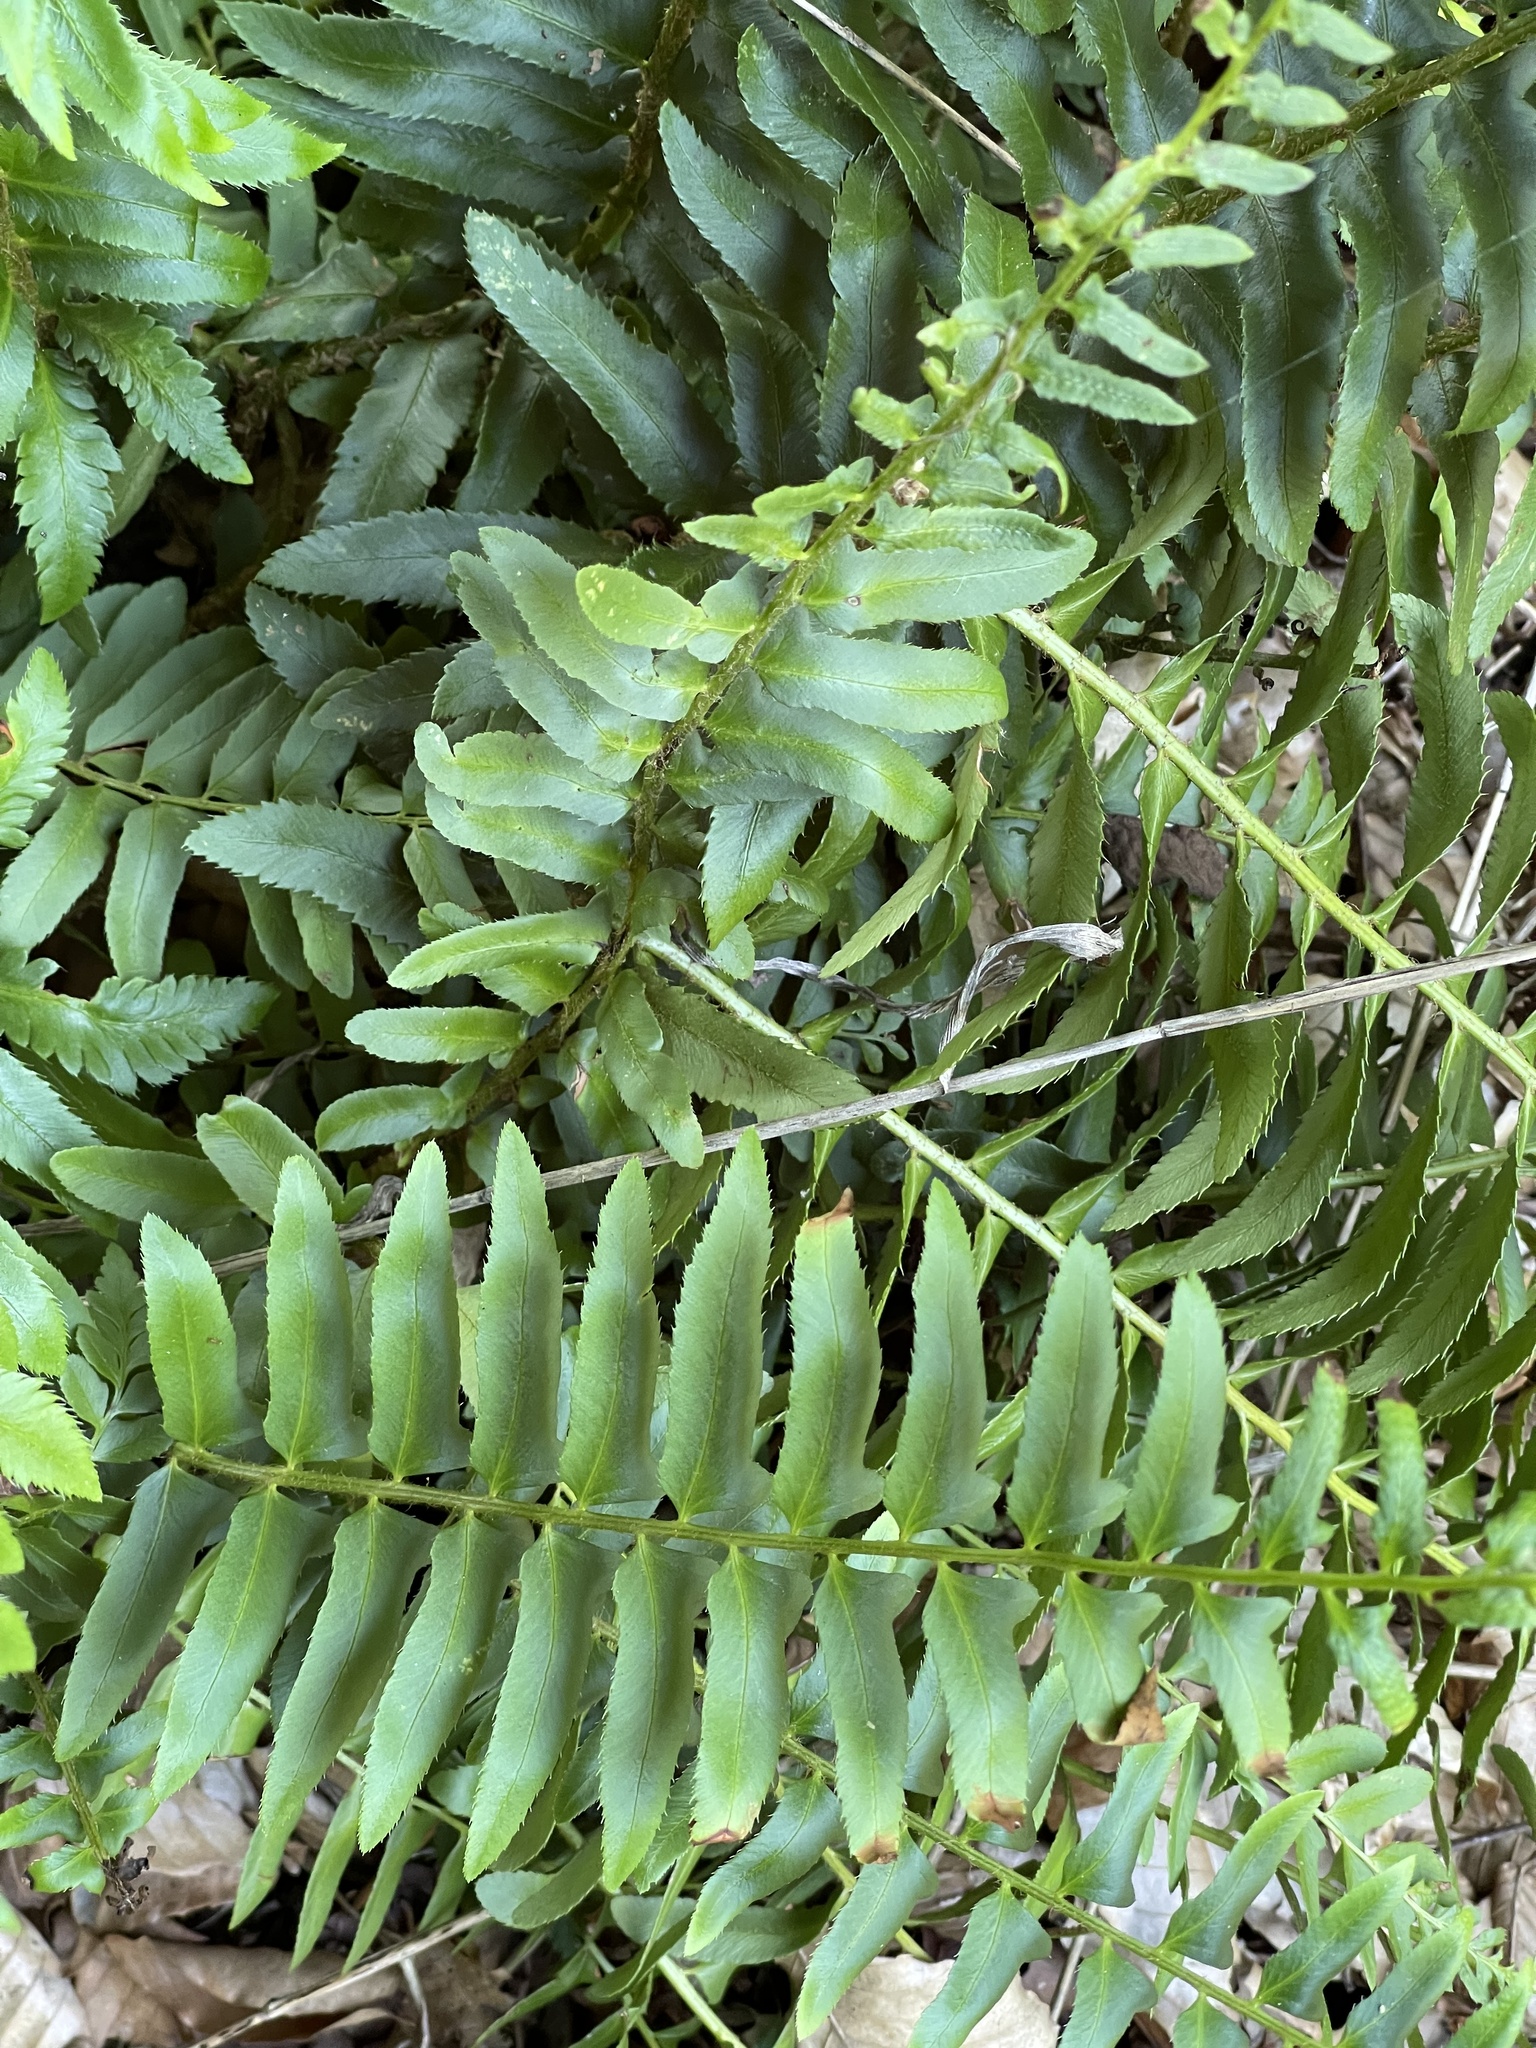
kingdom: Plantae
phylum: Tracheophyta
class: Polypodiopsida
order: Polypodiales
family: Dryopteridaceae
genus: Polystichum
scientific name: Polystichum acrostichoides
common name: Christmas fern
